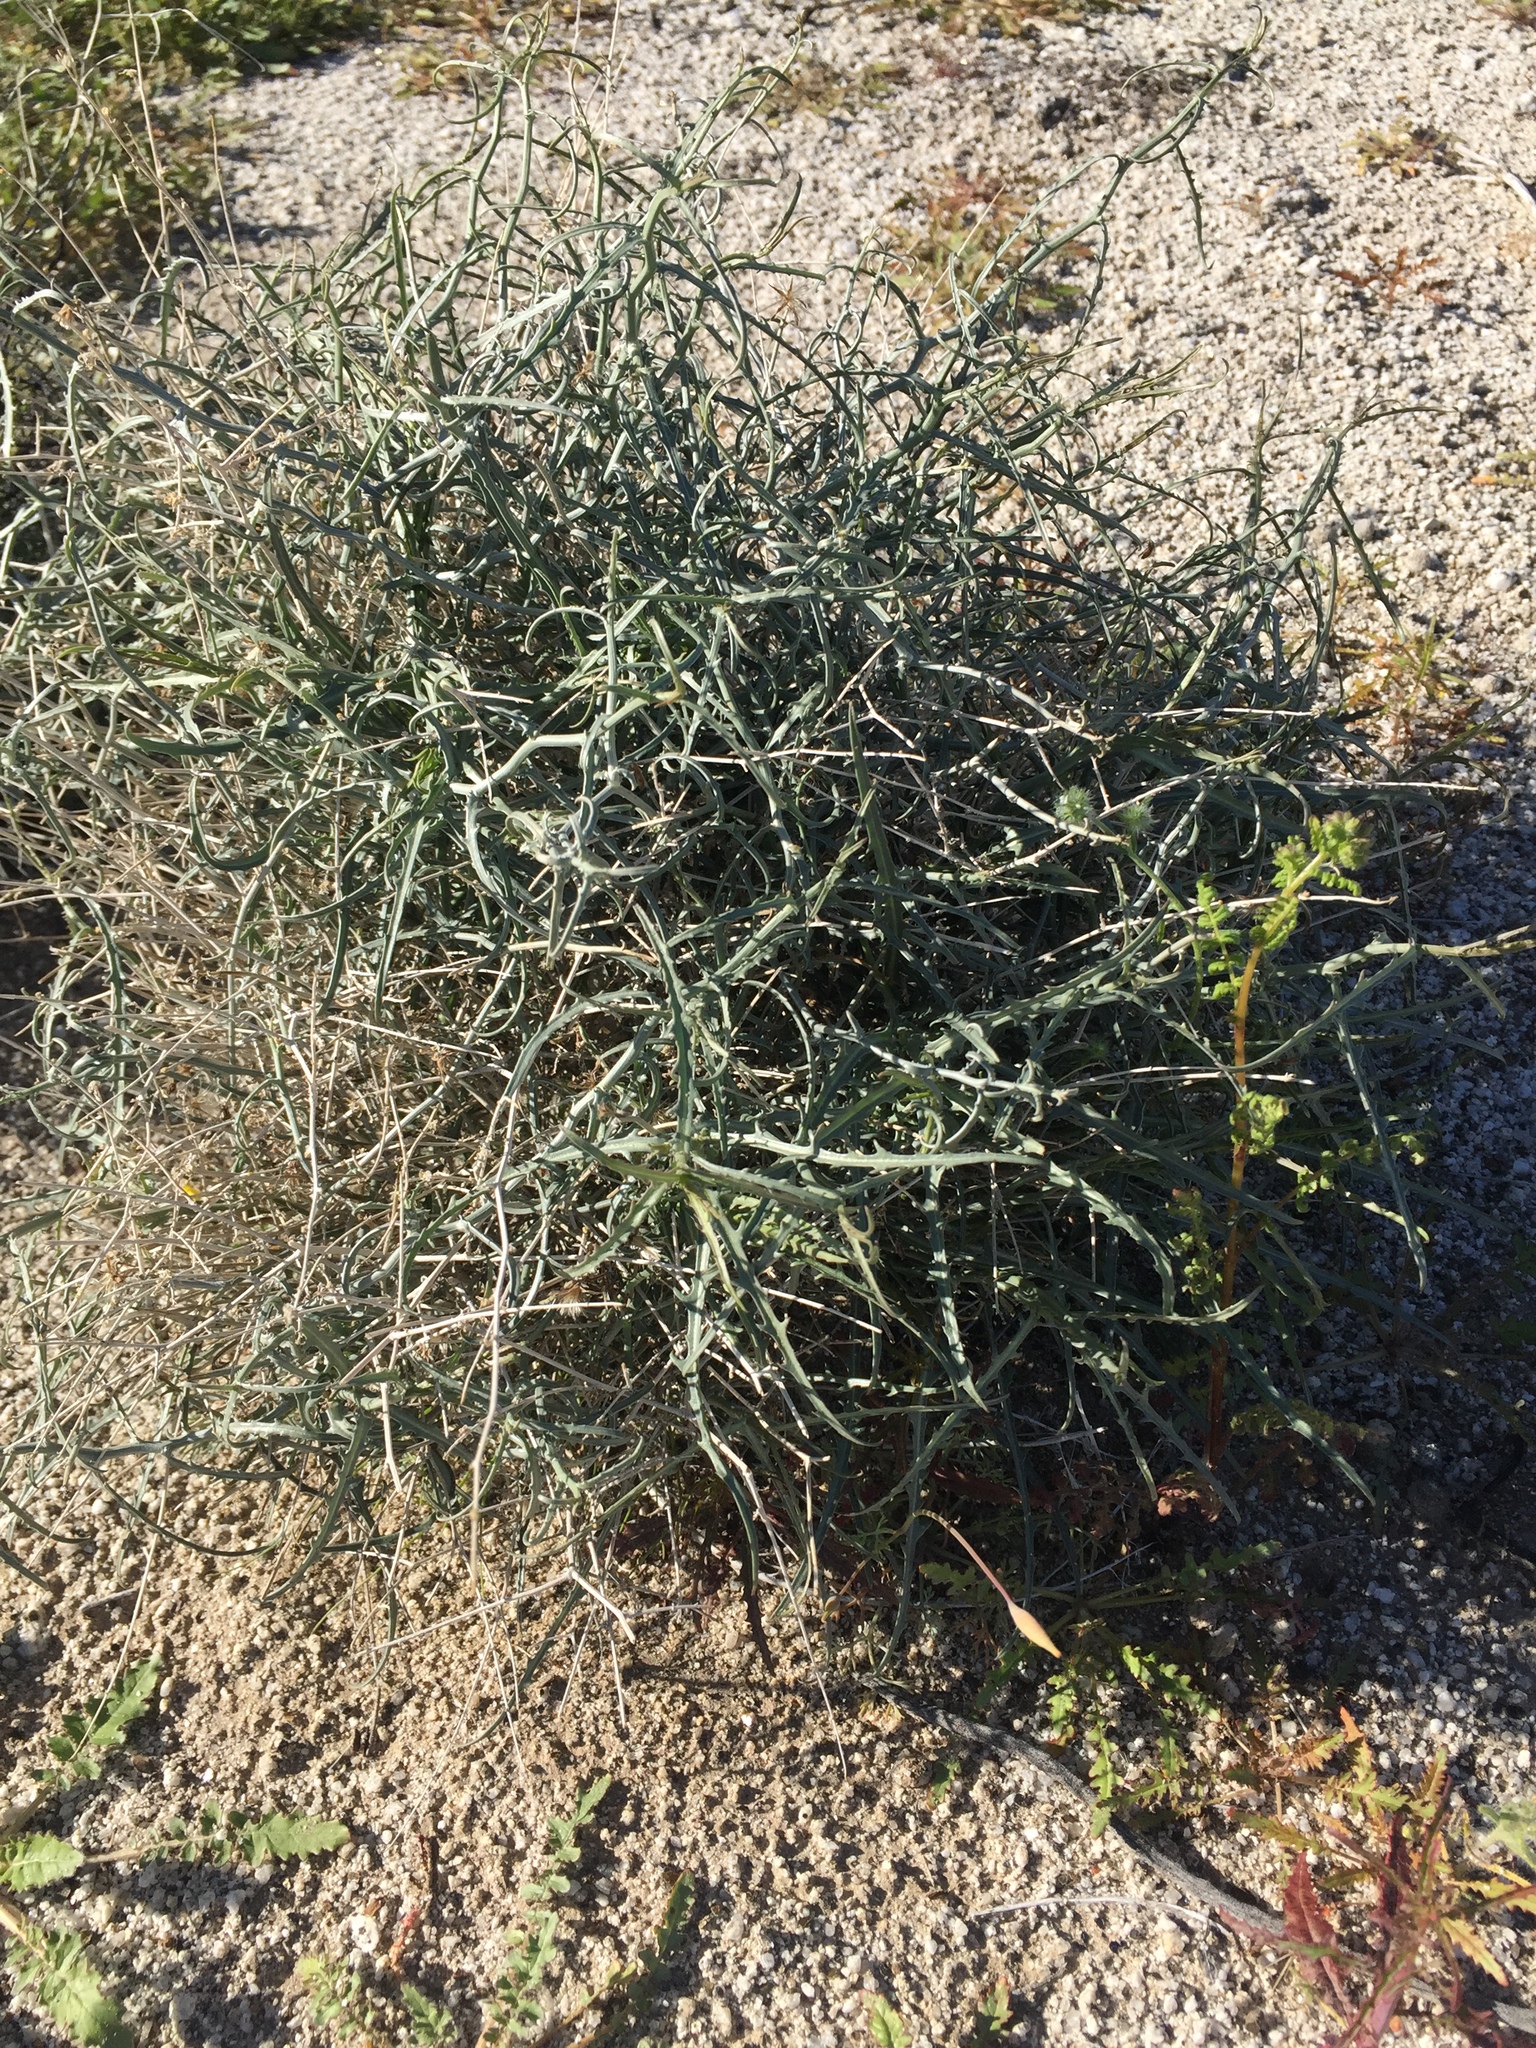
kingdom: Plantae
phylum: Tracheophyta
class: Magnoliopsida
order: Asterales
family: Asteraceae
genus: Stephanomeria
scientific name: Stephanomeria pauciflora
